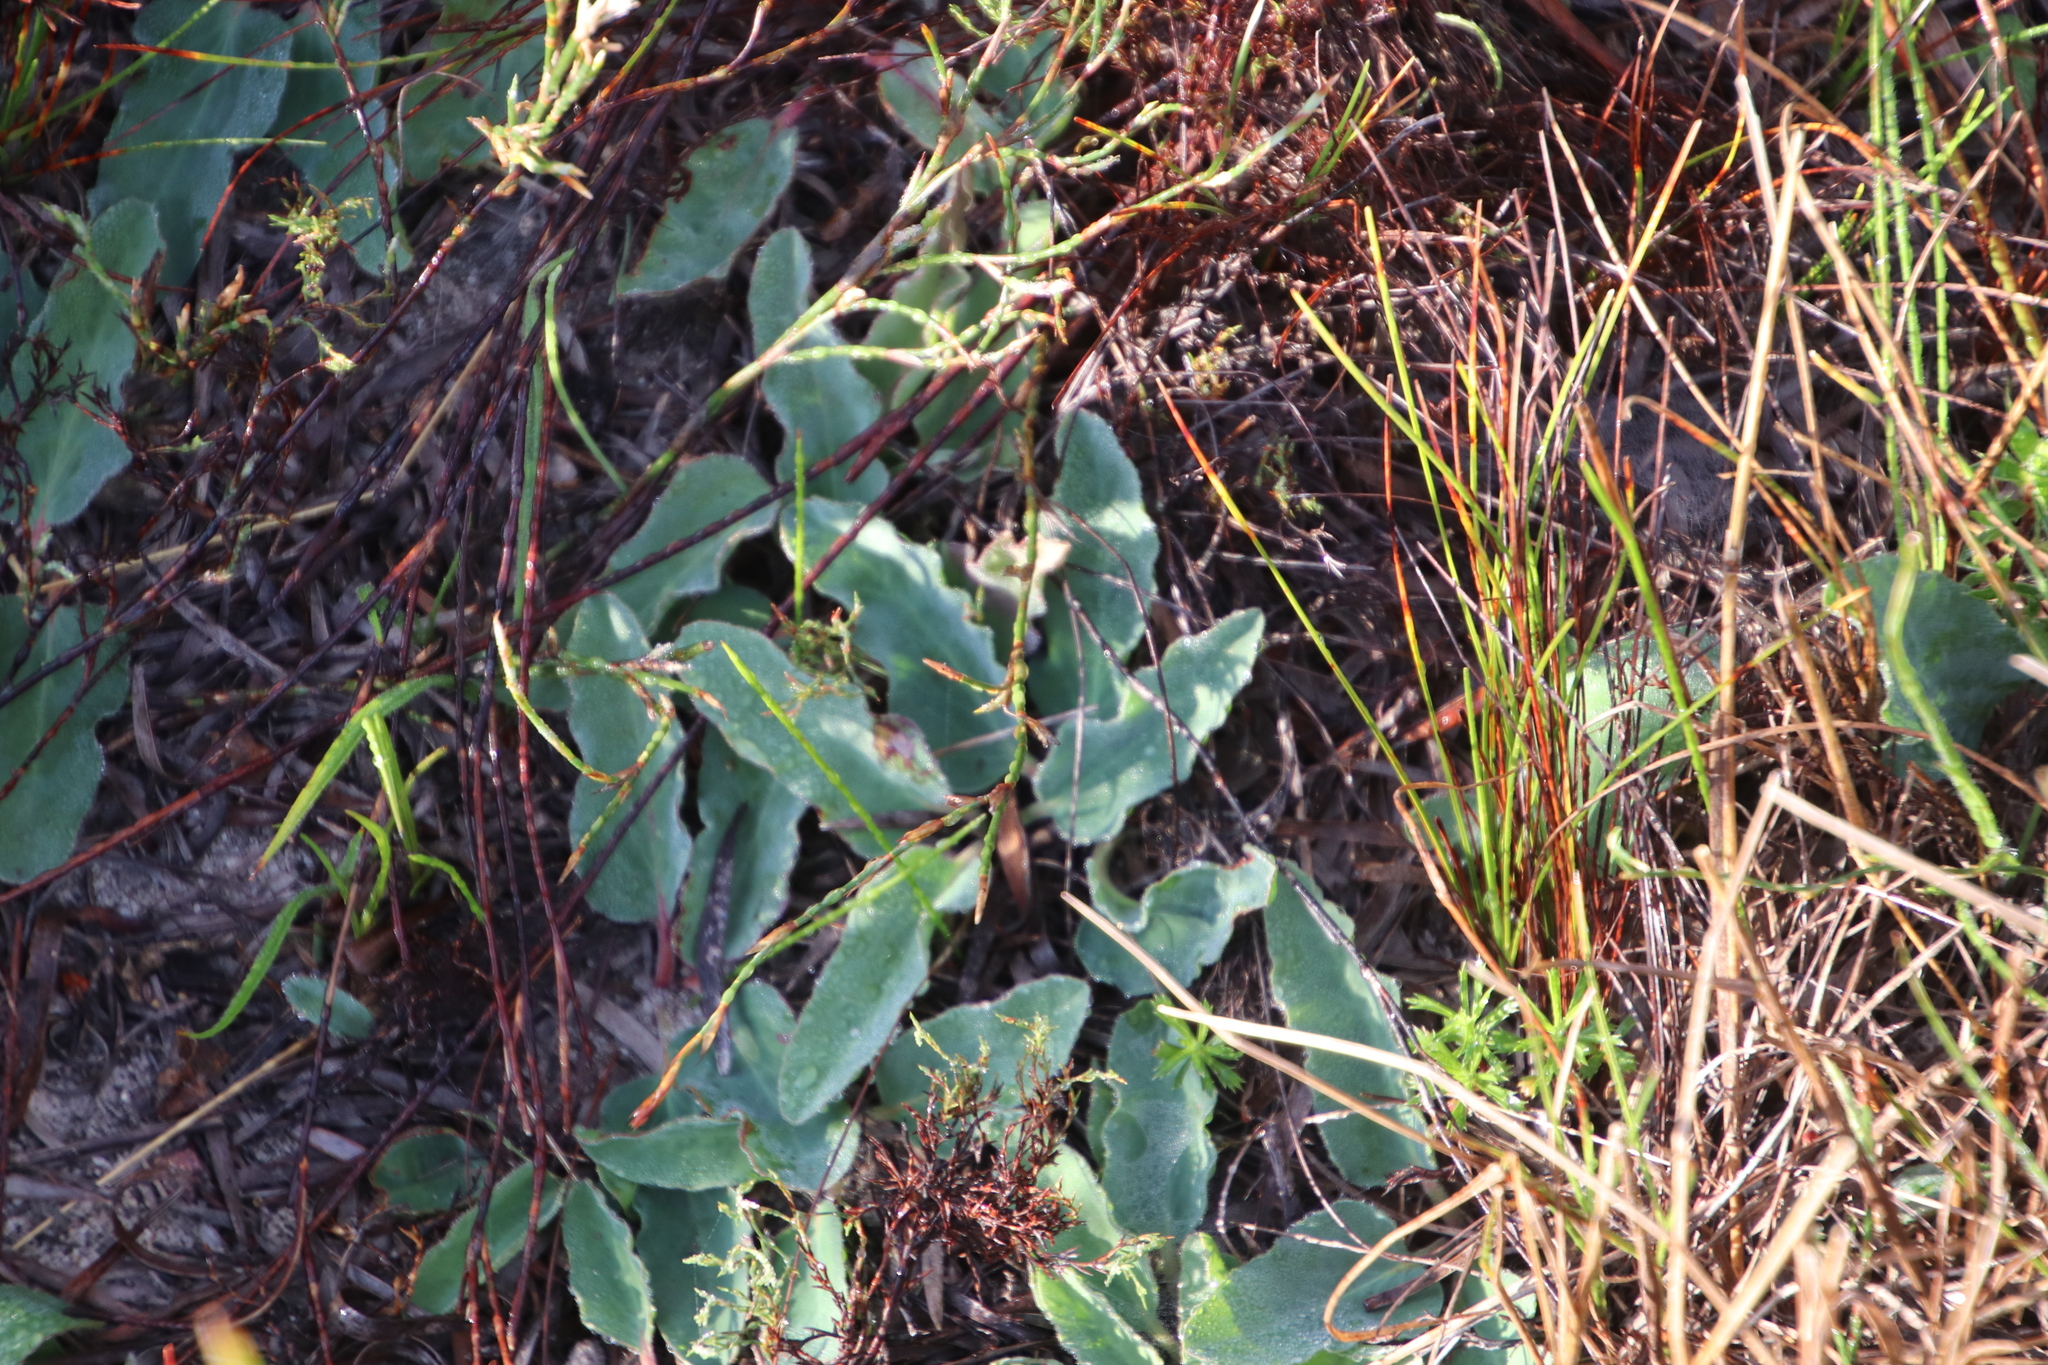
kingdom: Plantae
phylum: Tracheophyta
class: Magnoliopsida
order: Malpighiales
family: Euphorbiaceae
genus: Euphorbia
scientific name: Euphorbia tuberosa
